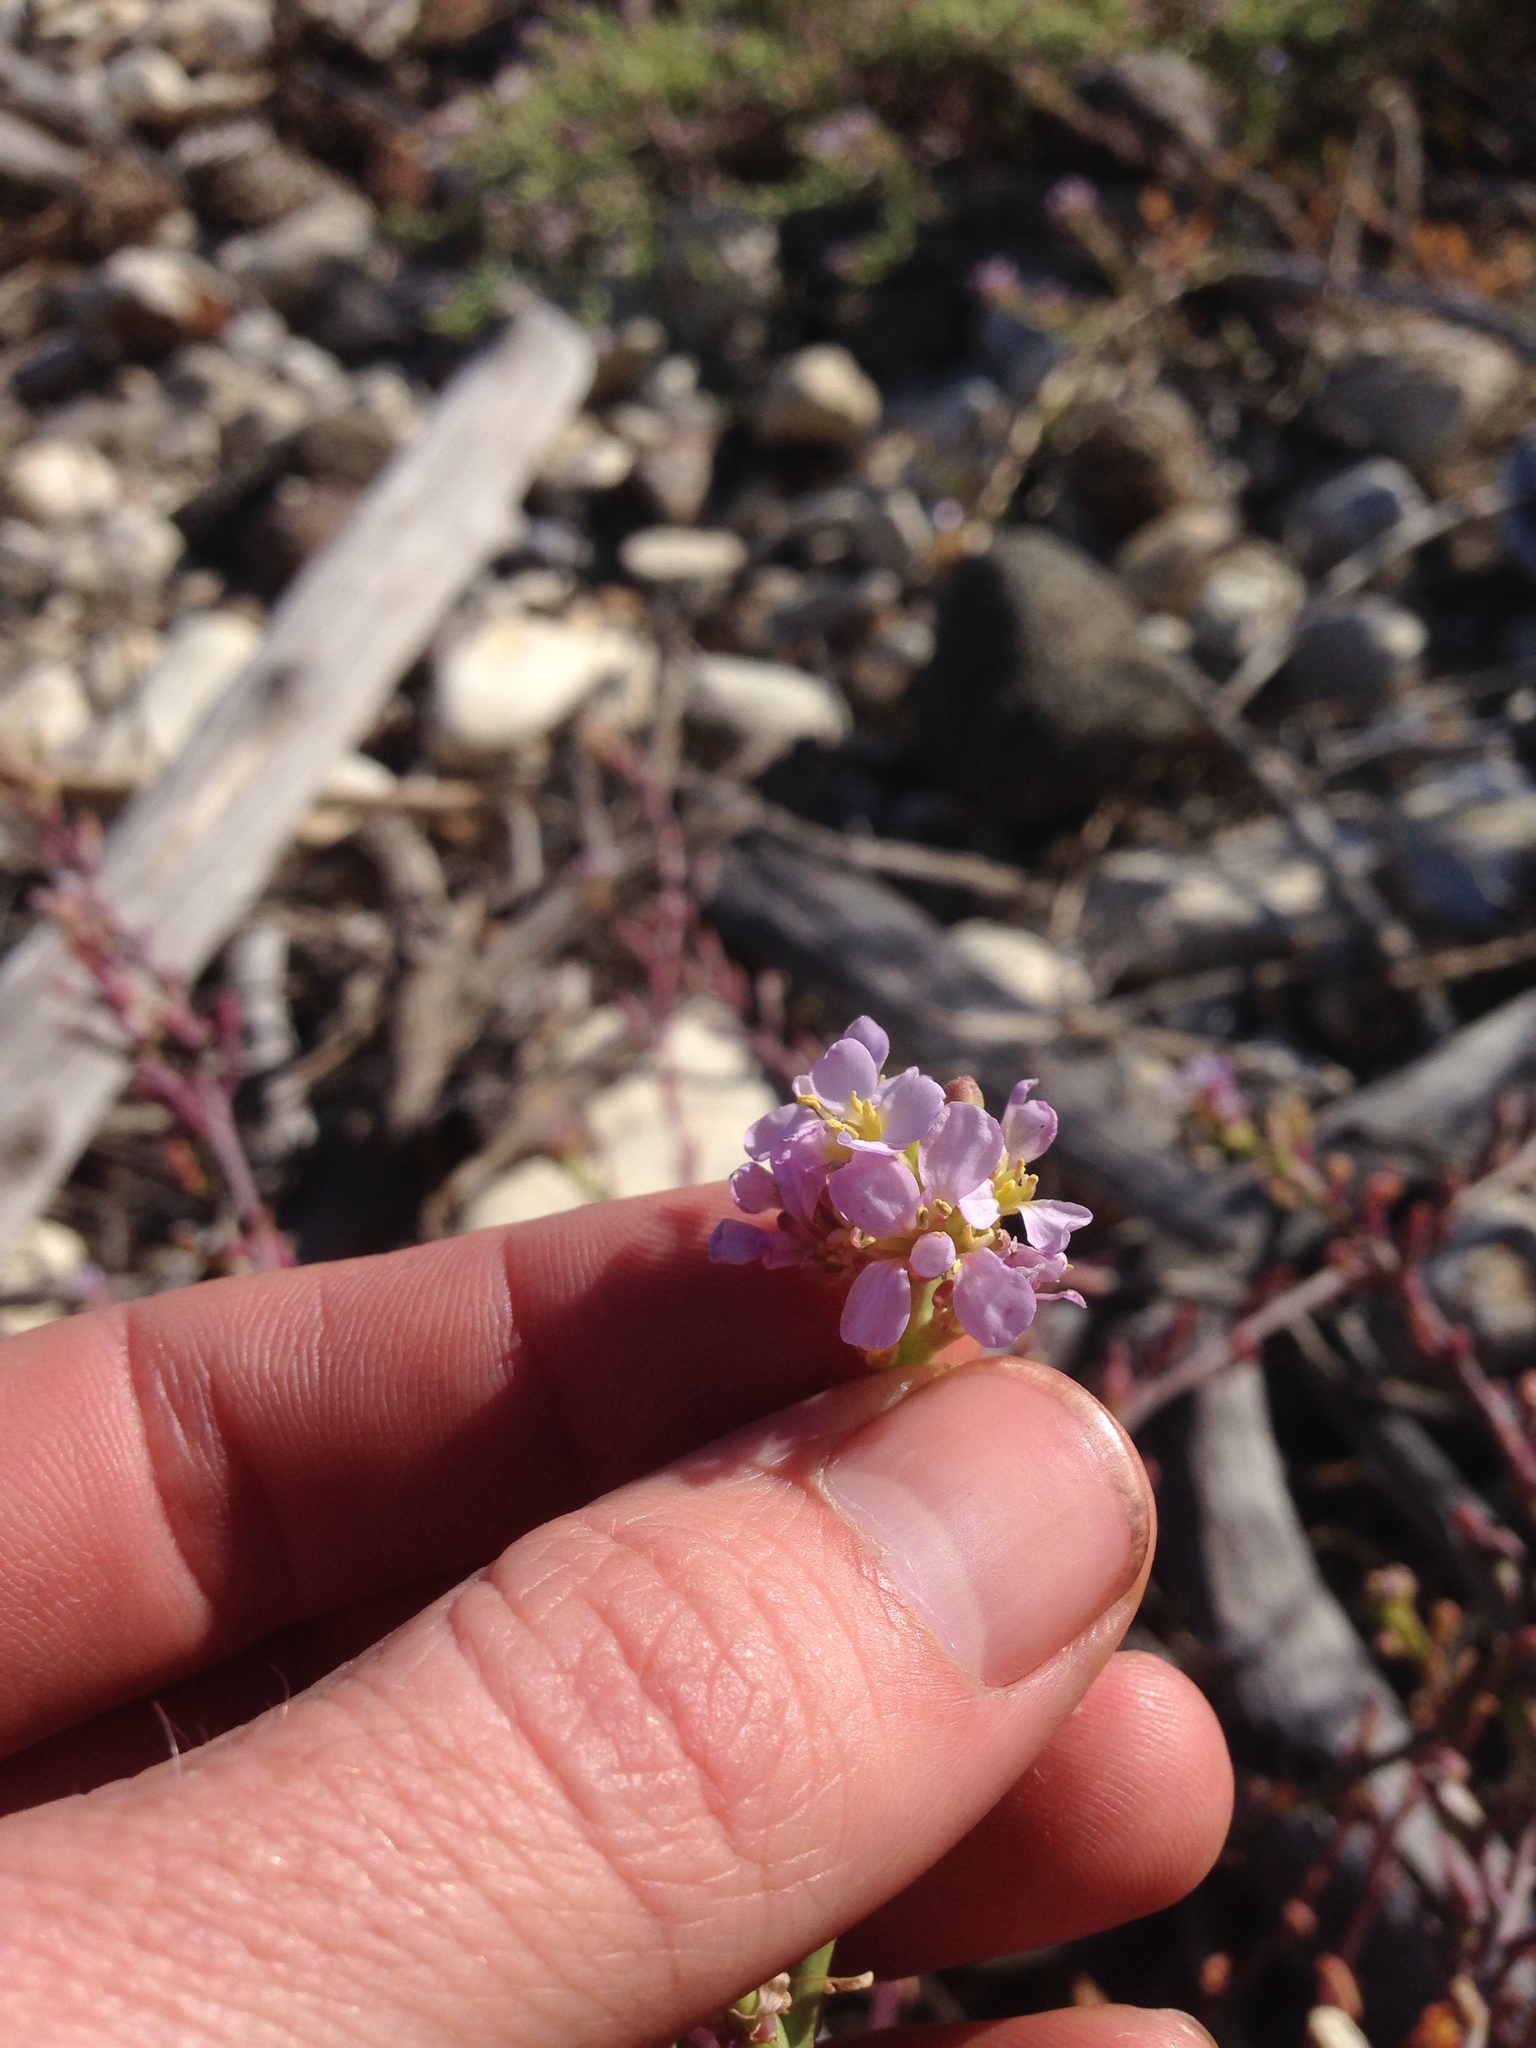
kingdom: Plantae
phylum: Tracheophyta
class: Magnoliopsida
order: Brassicales
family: Brassicaceae
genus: Cakile
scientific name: Cakile maritima
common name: Sea rocket
